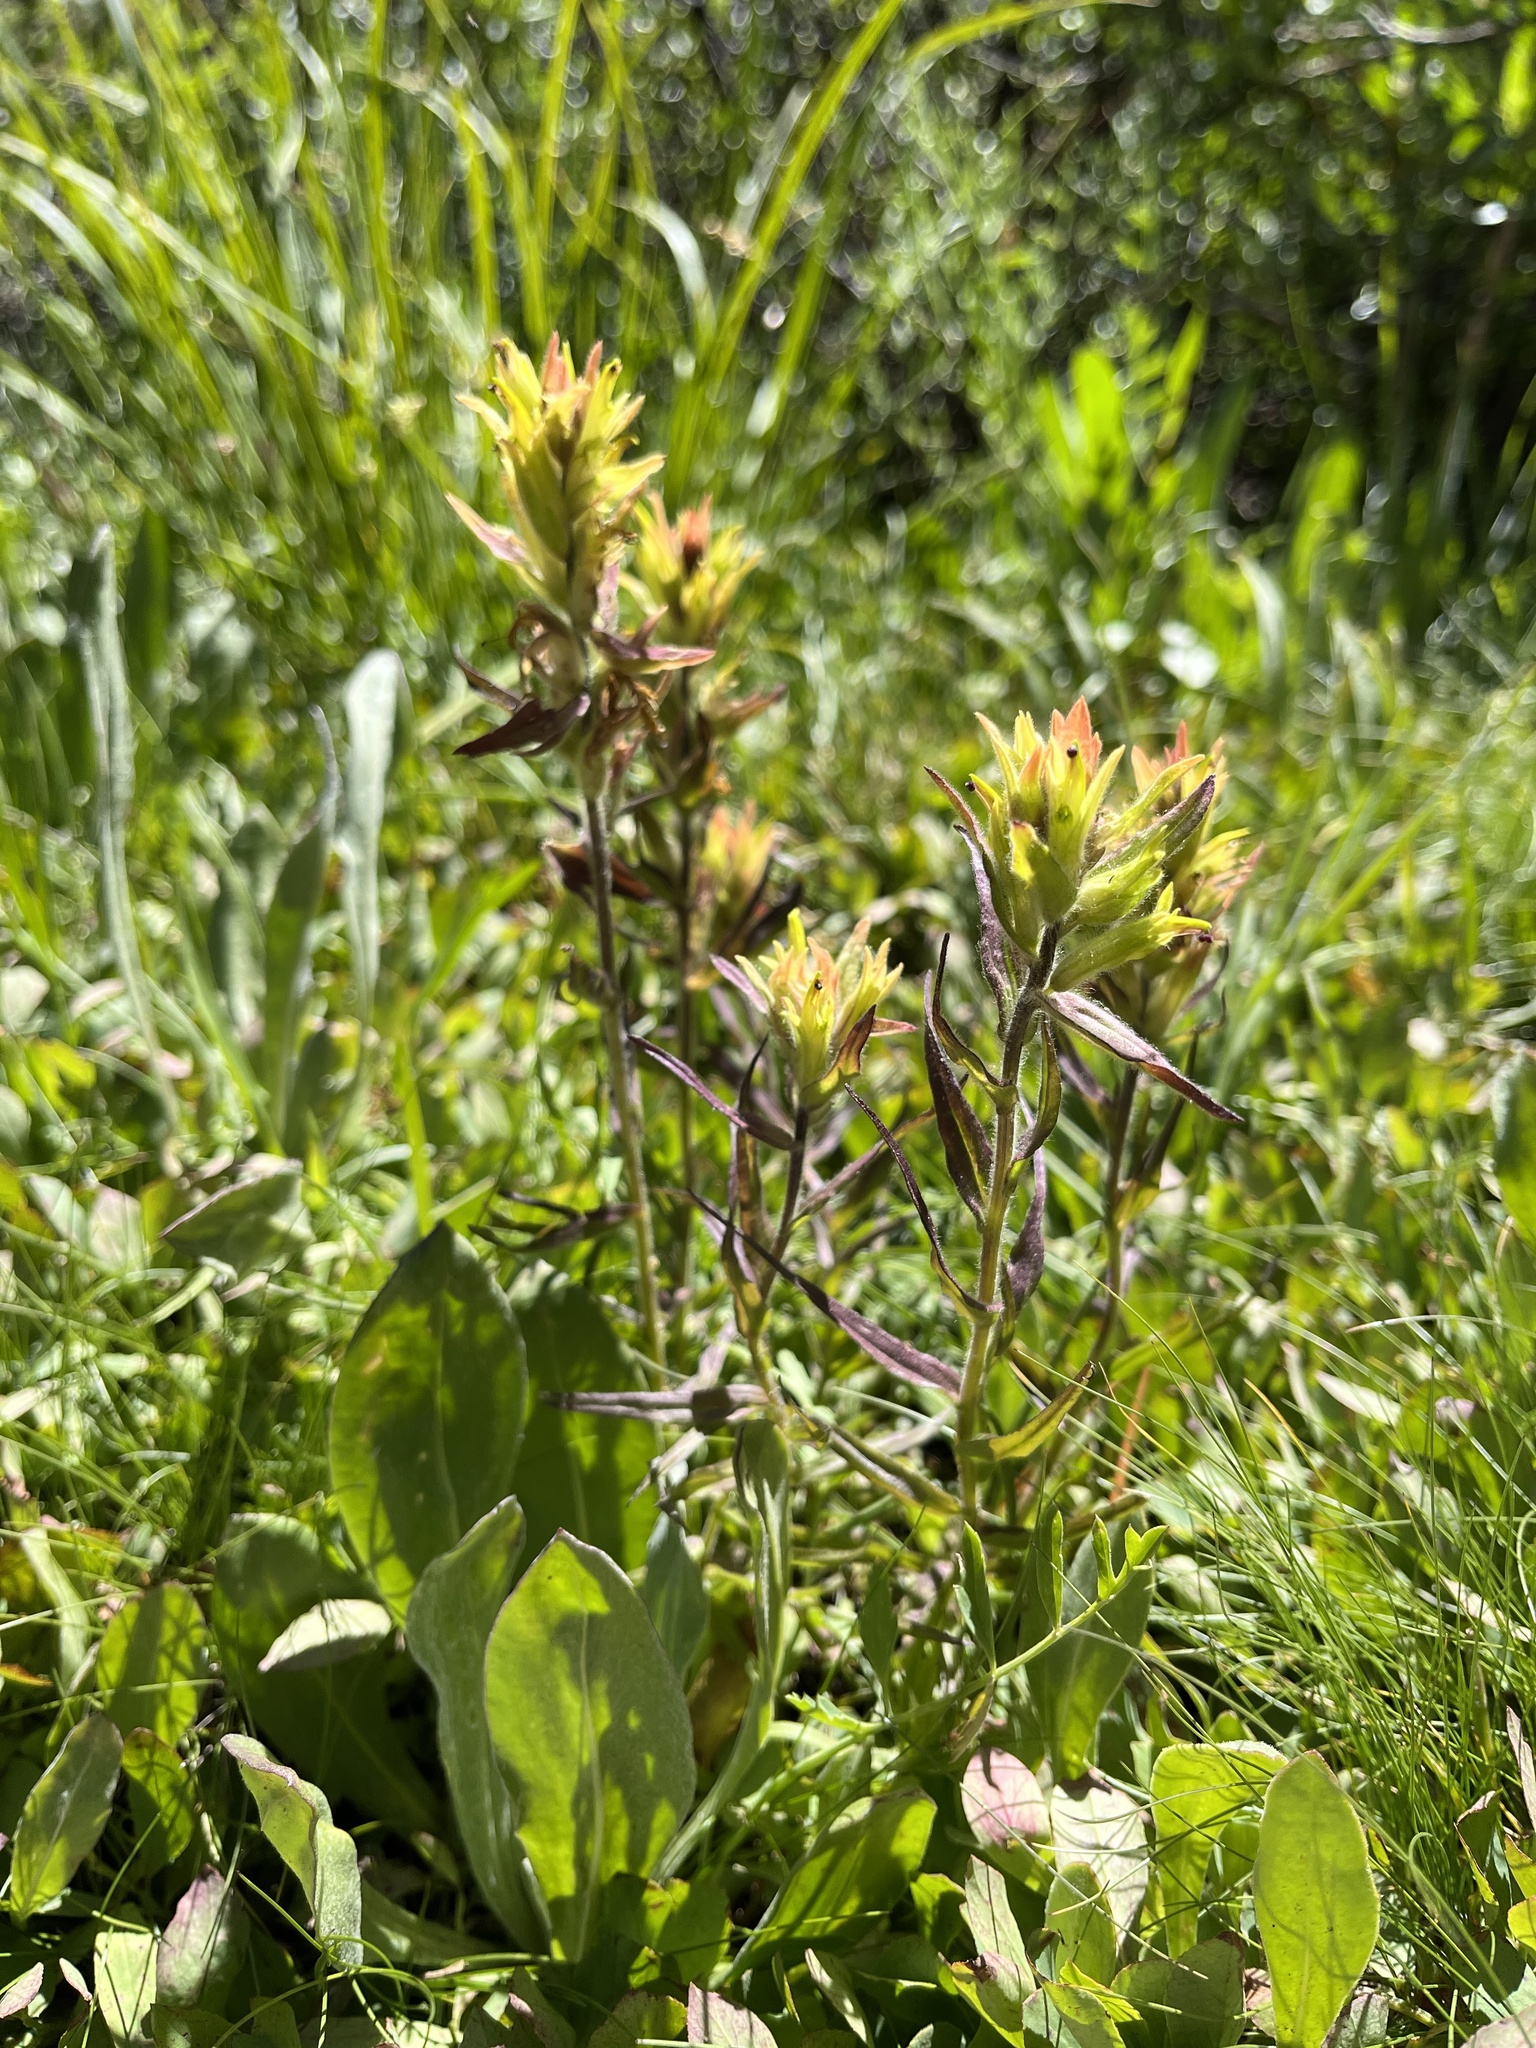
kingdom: Plantae
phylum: Tracheophyta
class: Magnoliopsida
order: Lamiales
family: Orobanchaceae
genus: Castilleja
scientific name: Castilleja peirsonii
